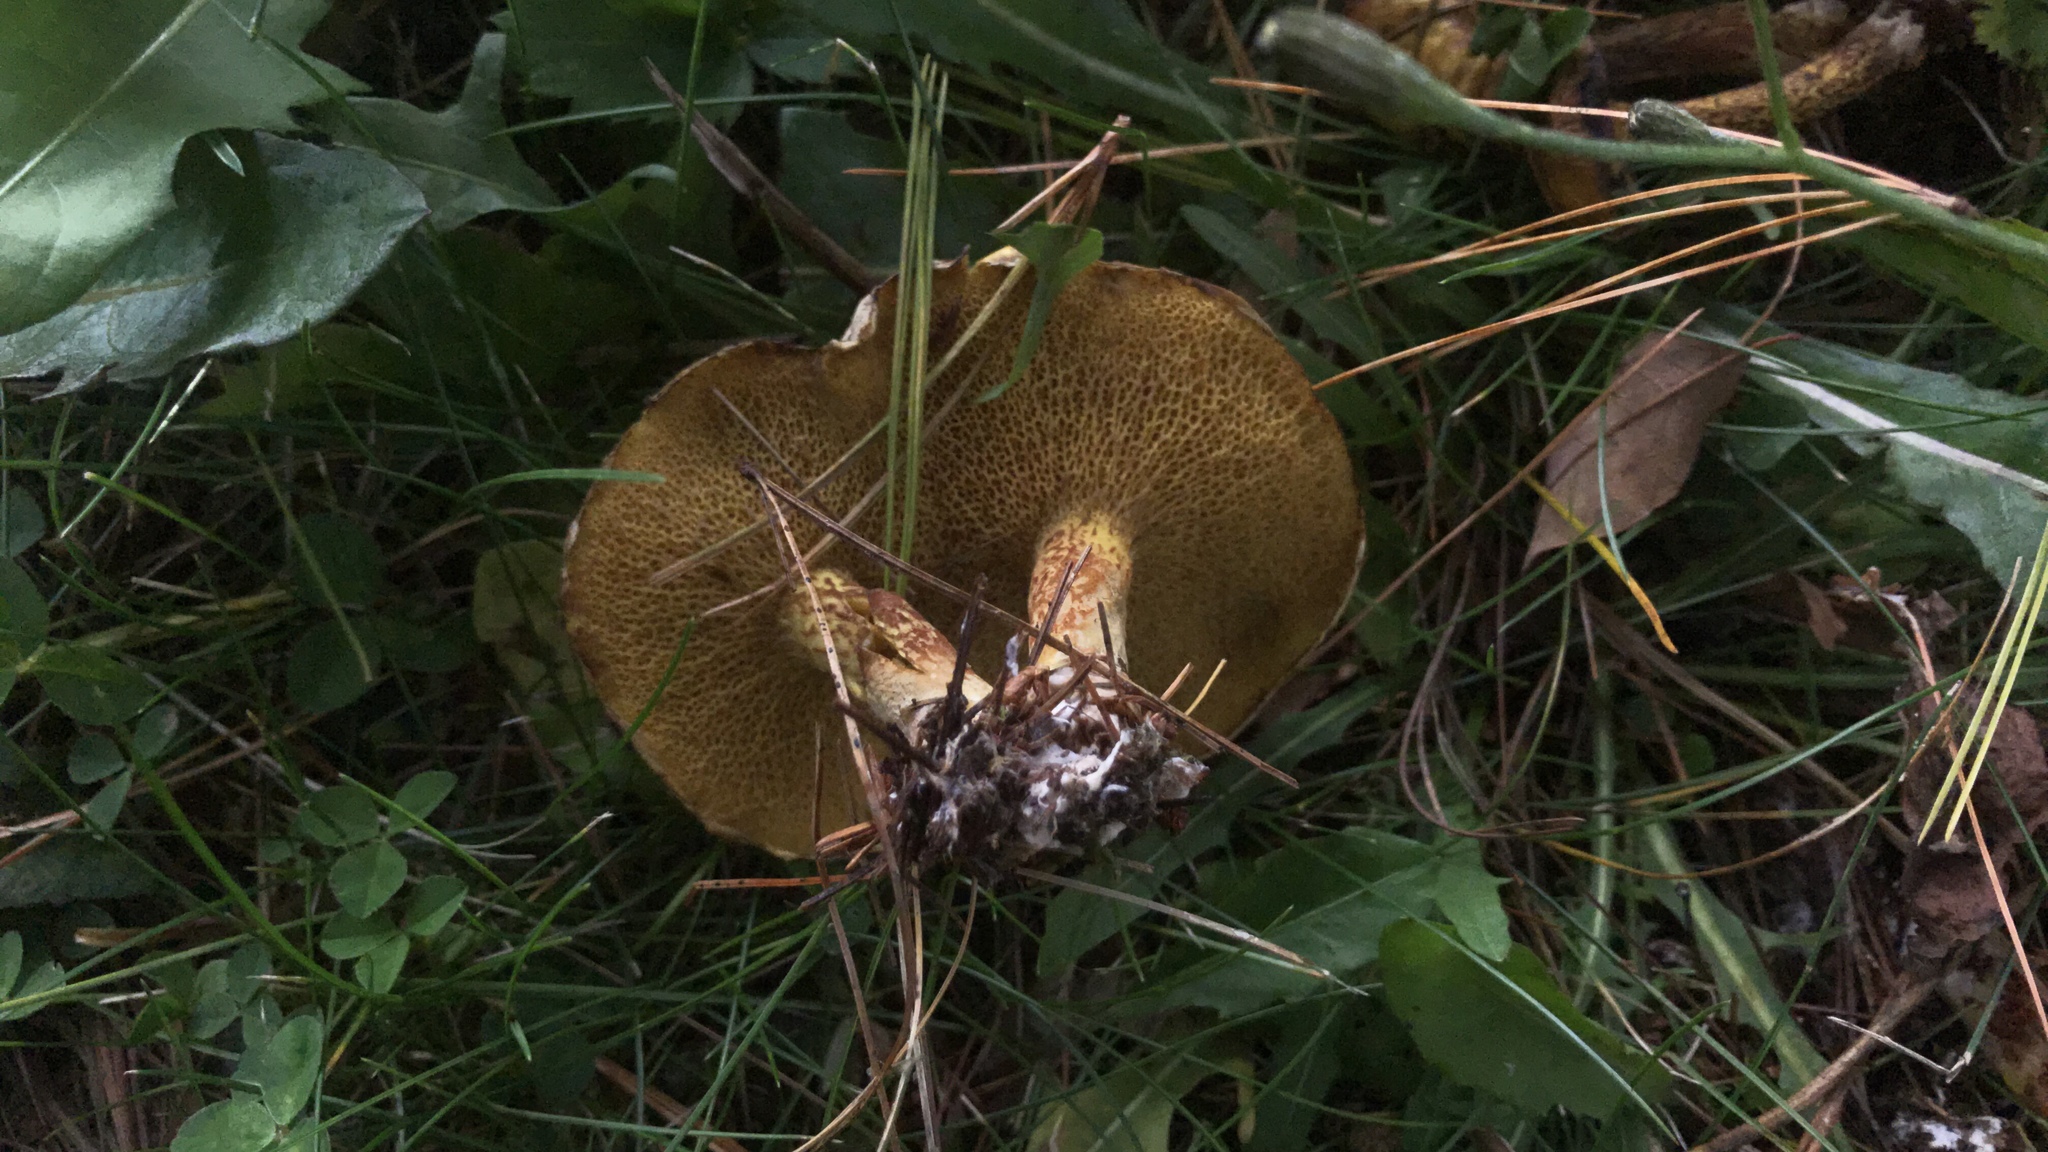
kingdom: Fungi
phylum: Basidiomycota
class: Agaricomycetes
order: Boletales
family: Suillaceae
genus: Suillus
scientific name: Suillus americanus
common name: Chicken fat mushroom
